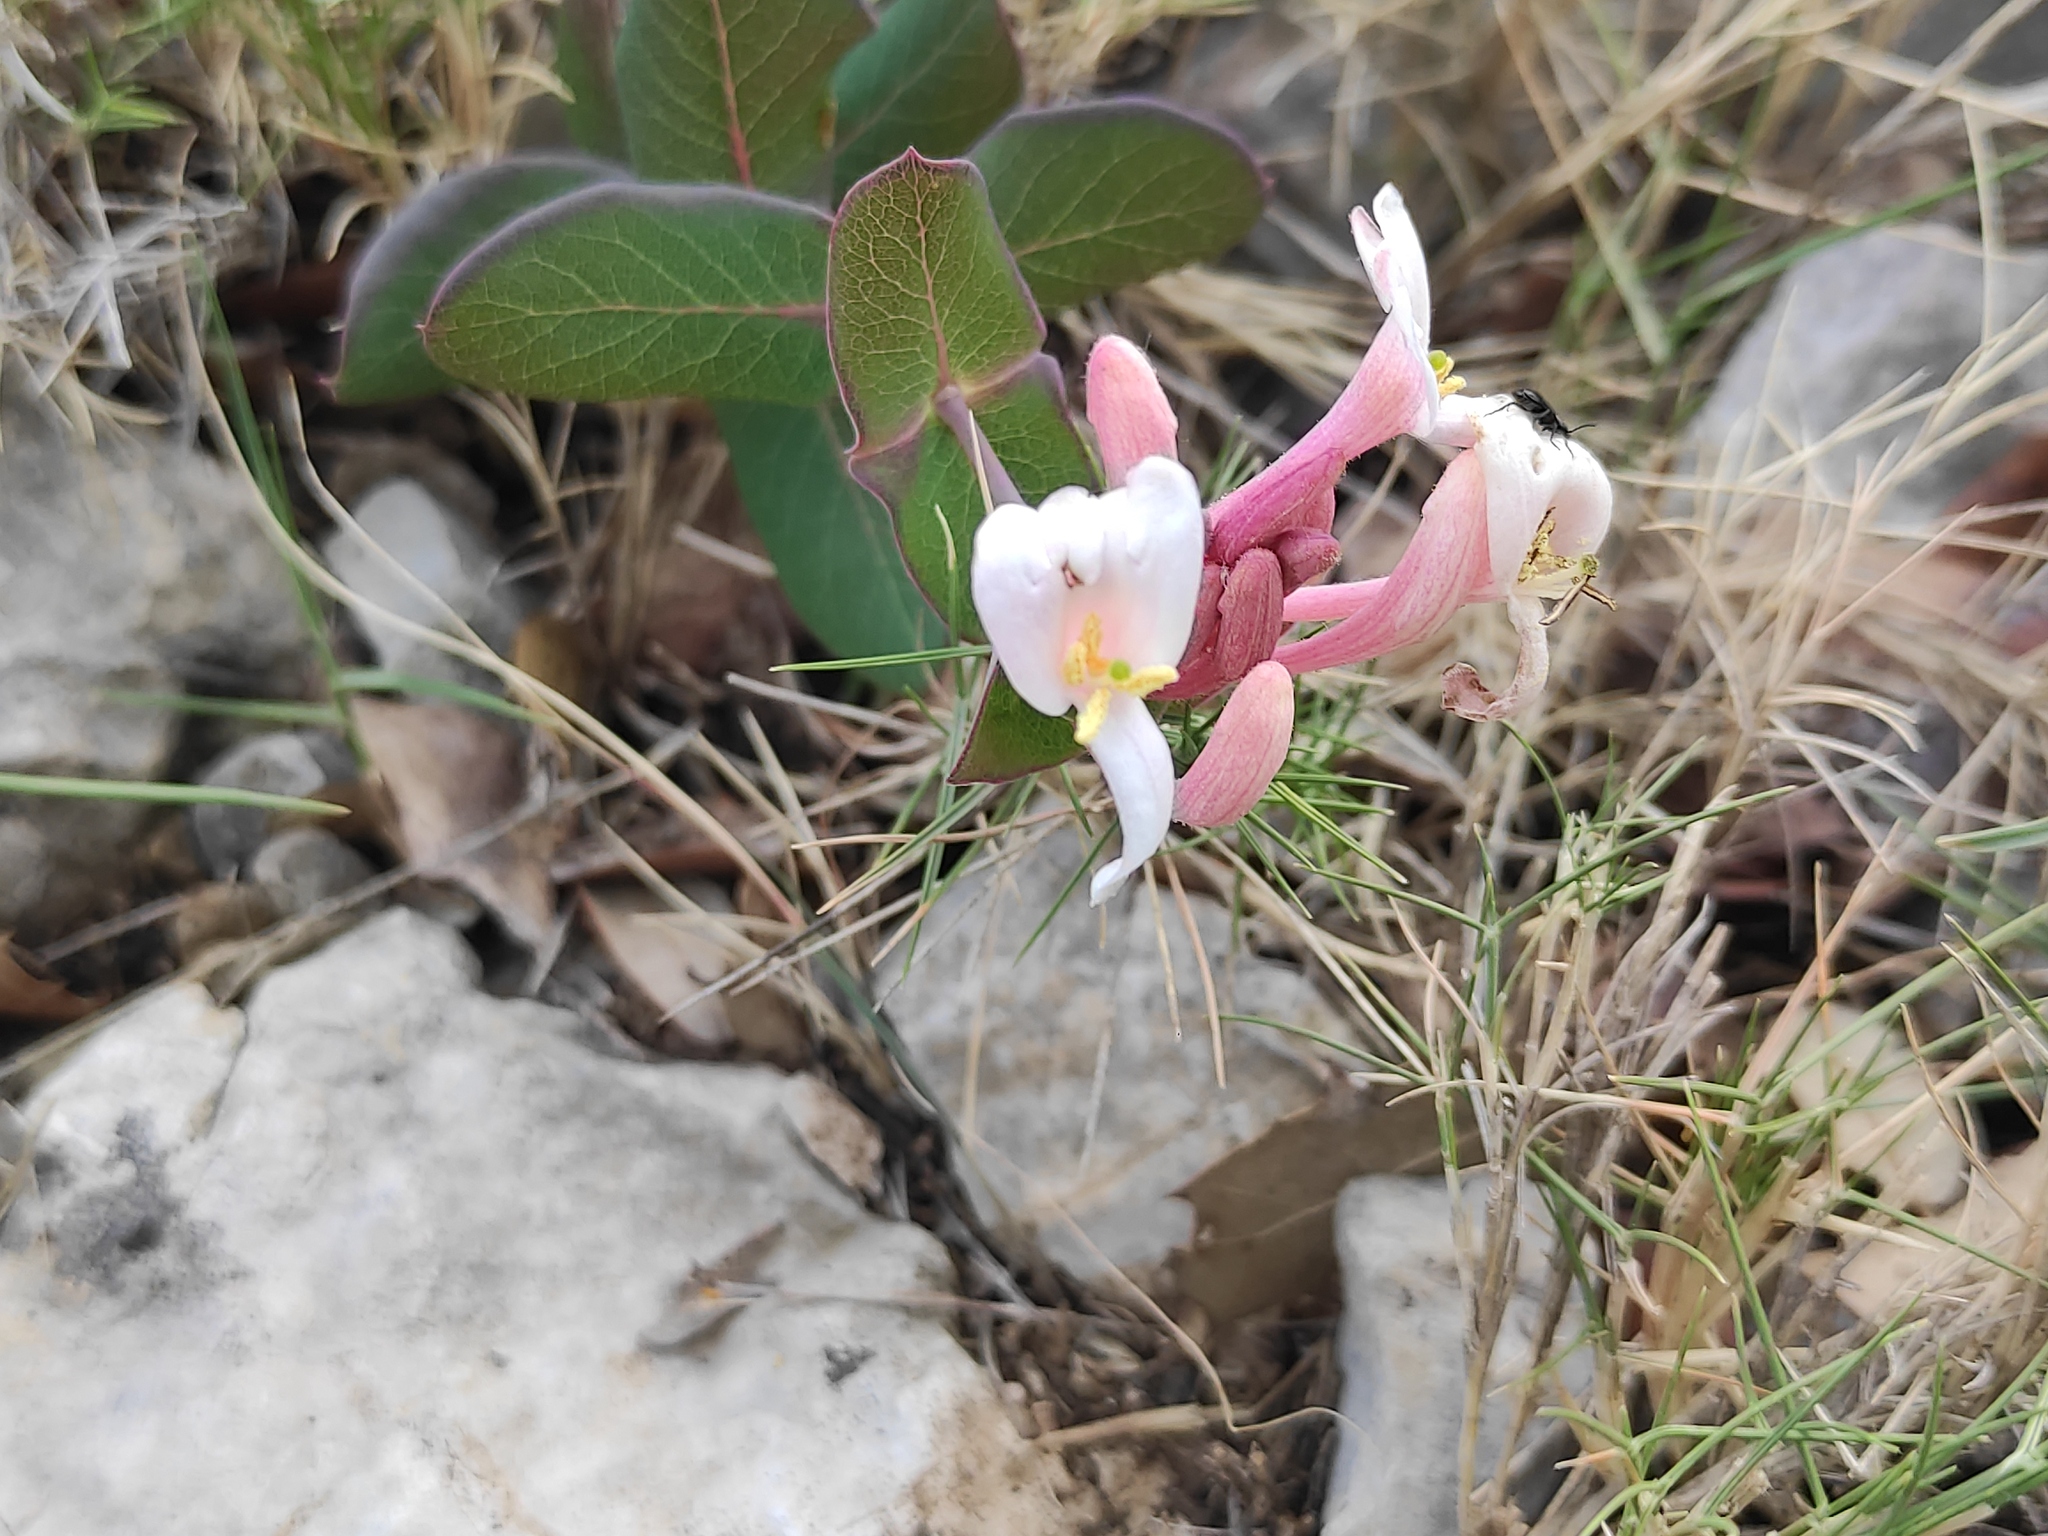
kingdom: Plantae
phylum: Tracheophyta
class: Magnoliopsida
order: Dipsacales
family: Caprifoliaceae
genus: Lonicera
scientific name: Lonicera implexa
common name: Minorca honeysuckle
